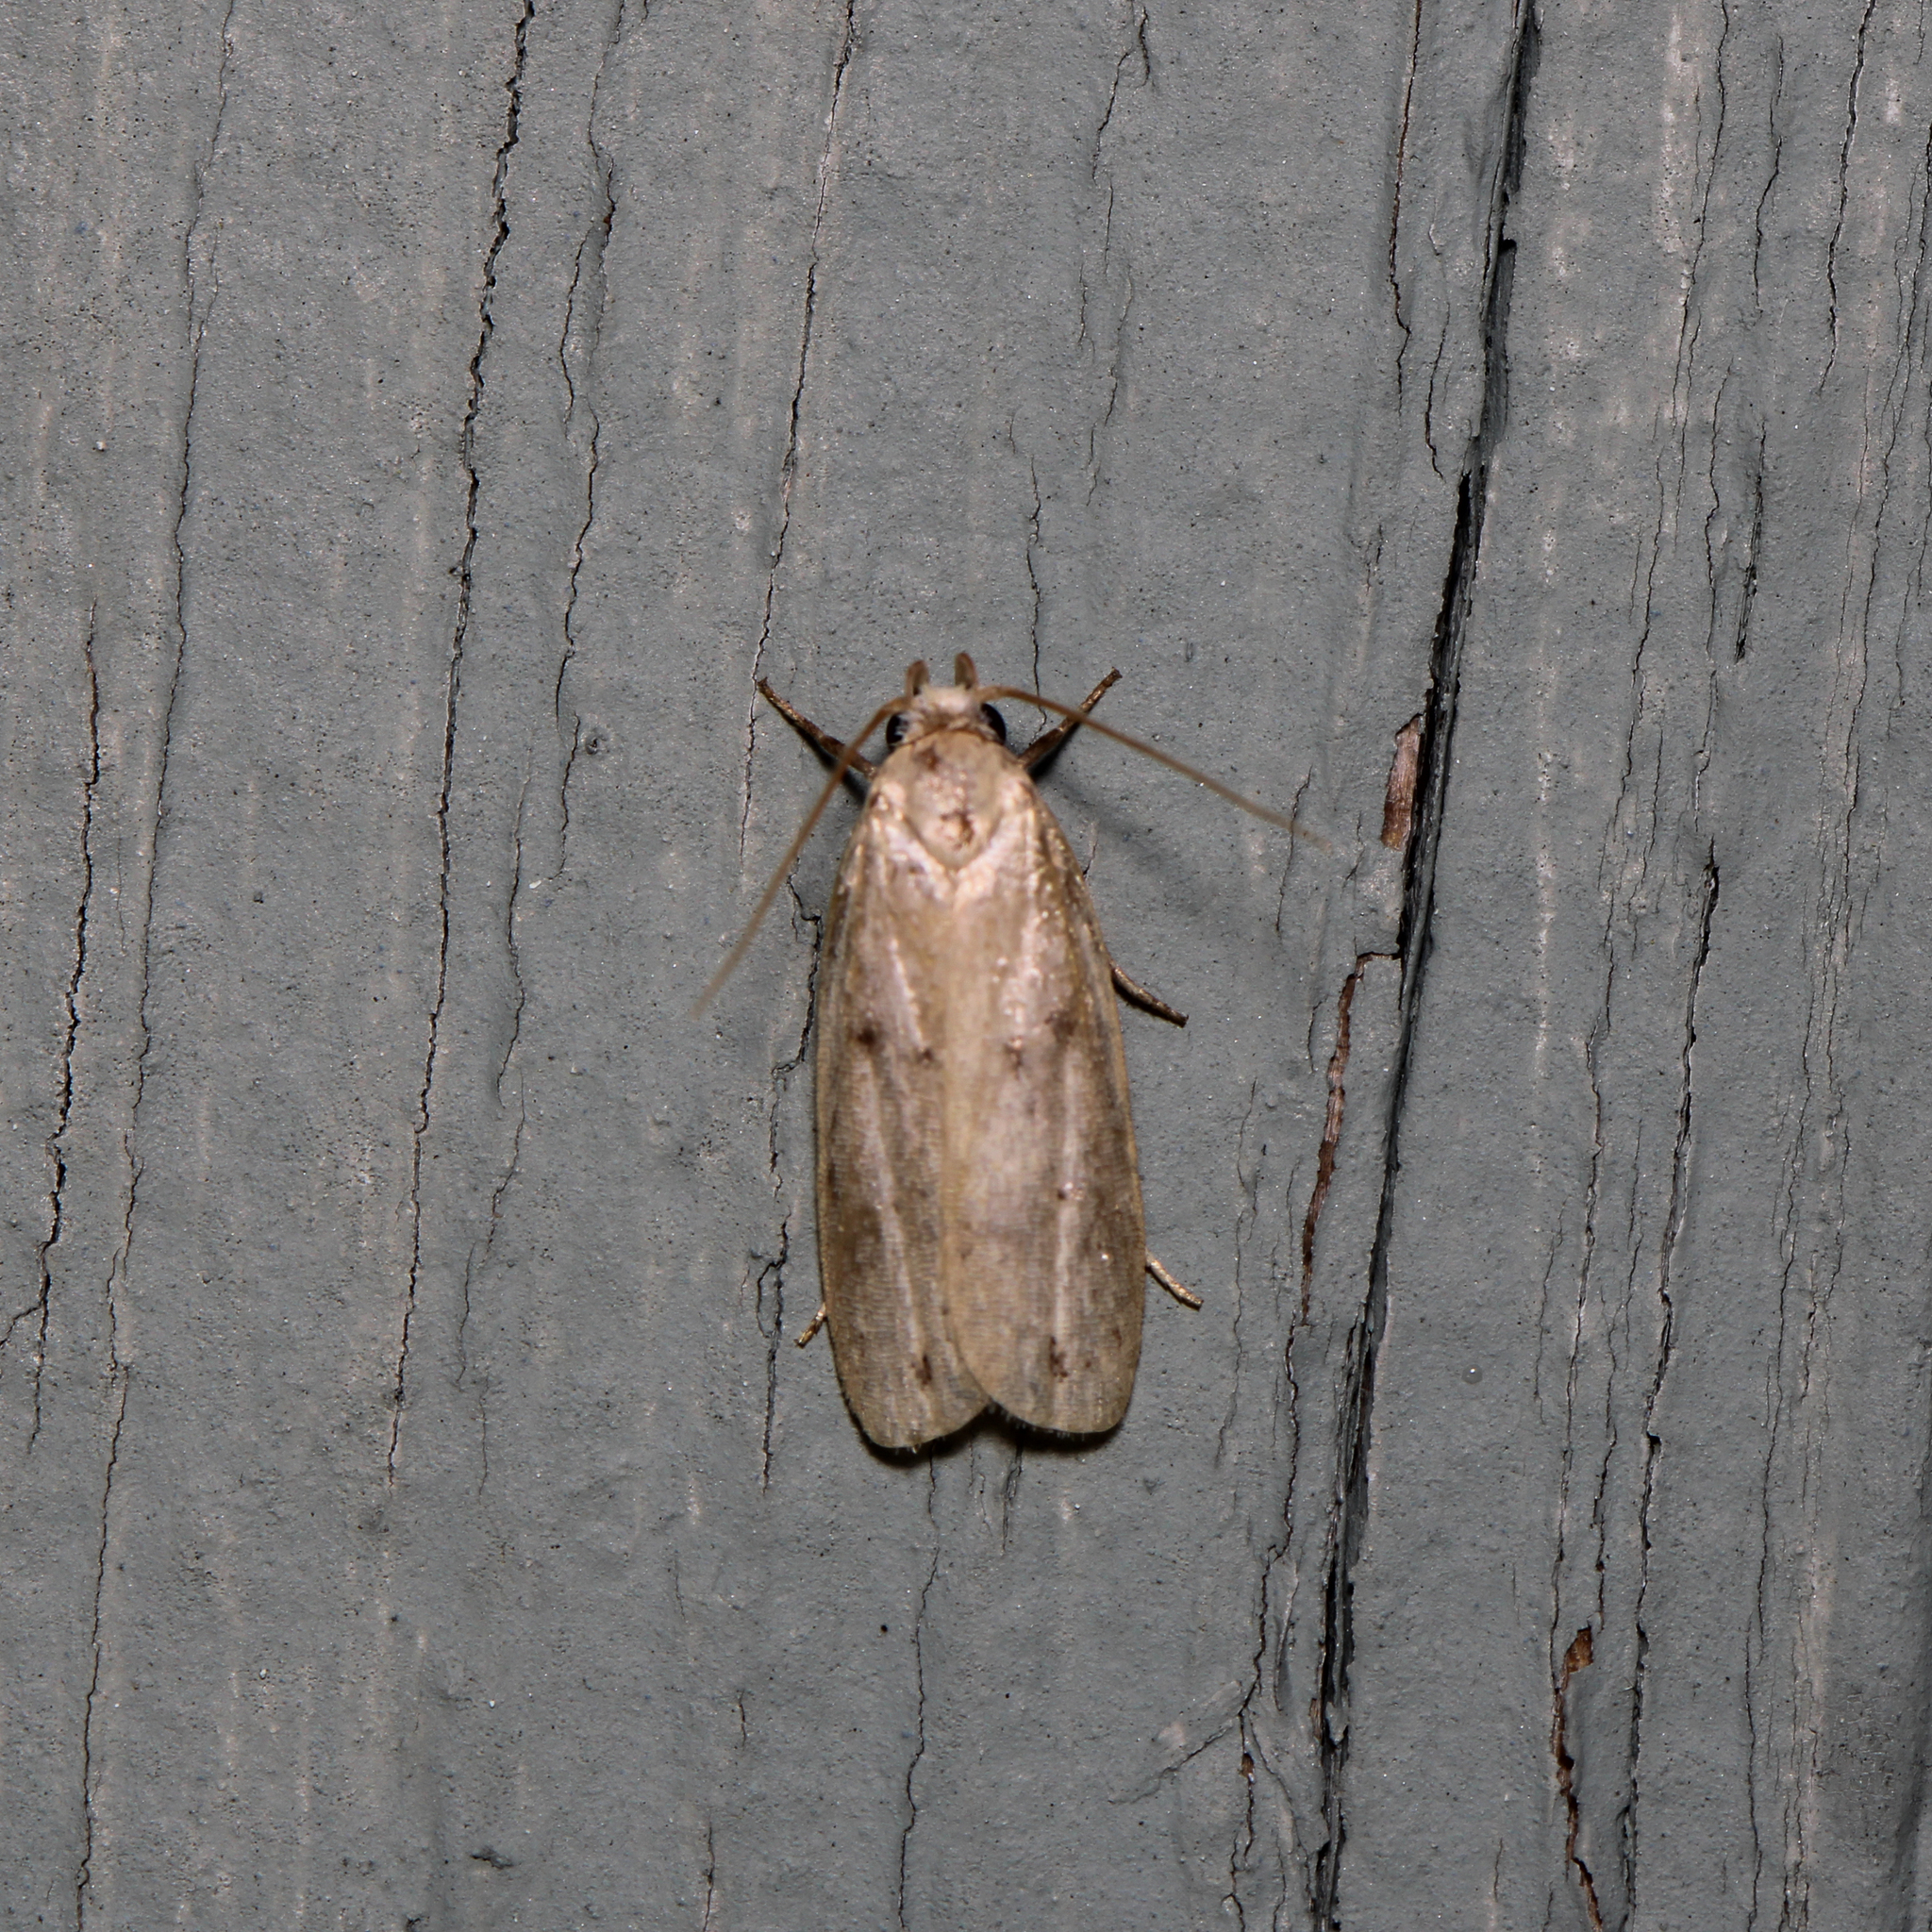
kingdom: Animalia
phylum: Arthropoda
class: Insecta
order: Lepidoptera
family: Peleopodidae
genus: Scythropiodes
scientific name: Scythropiodes issikii
